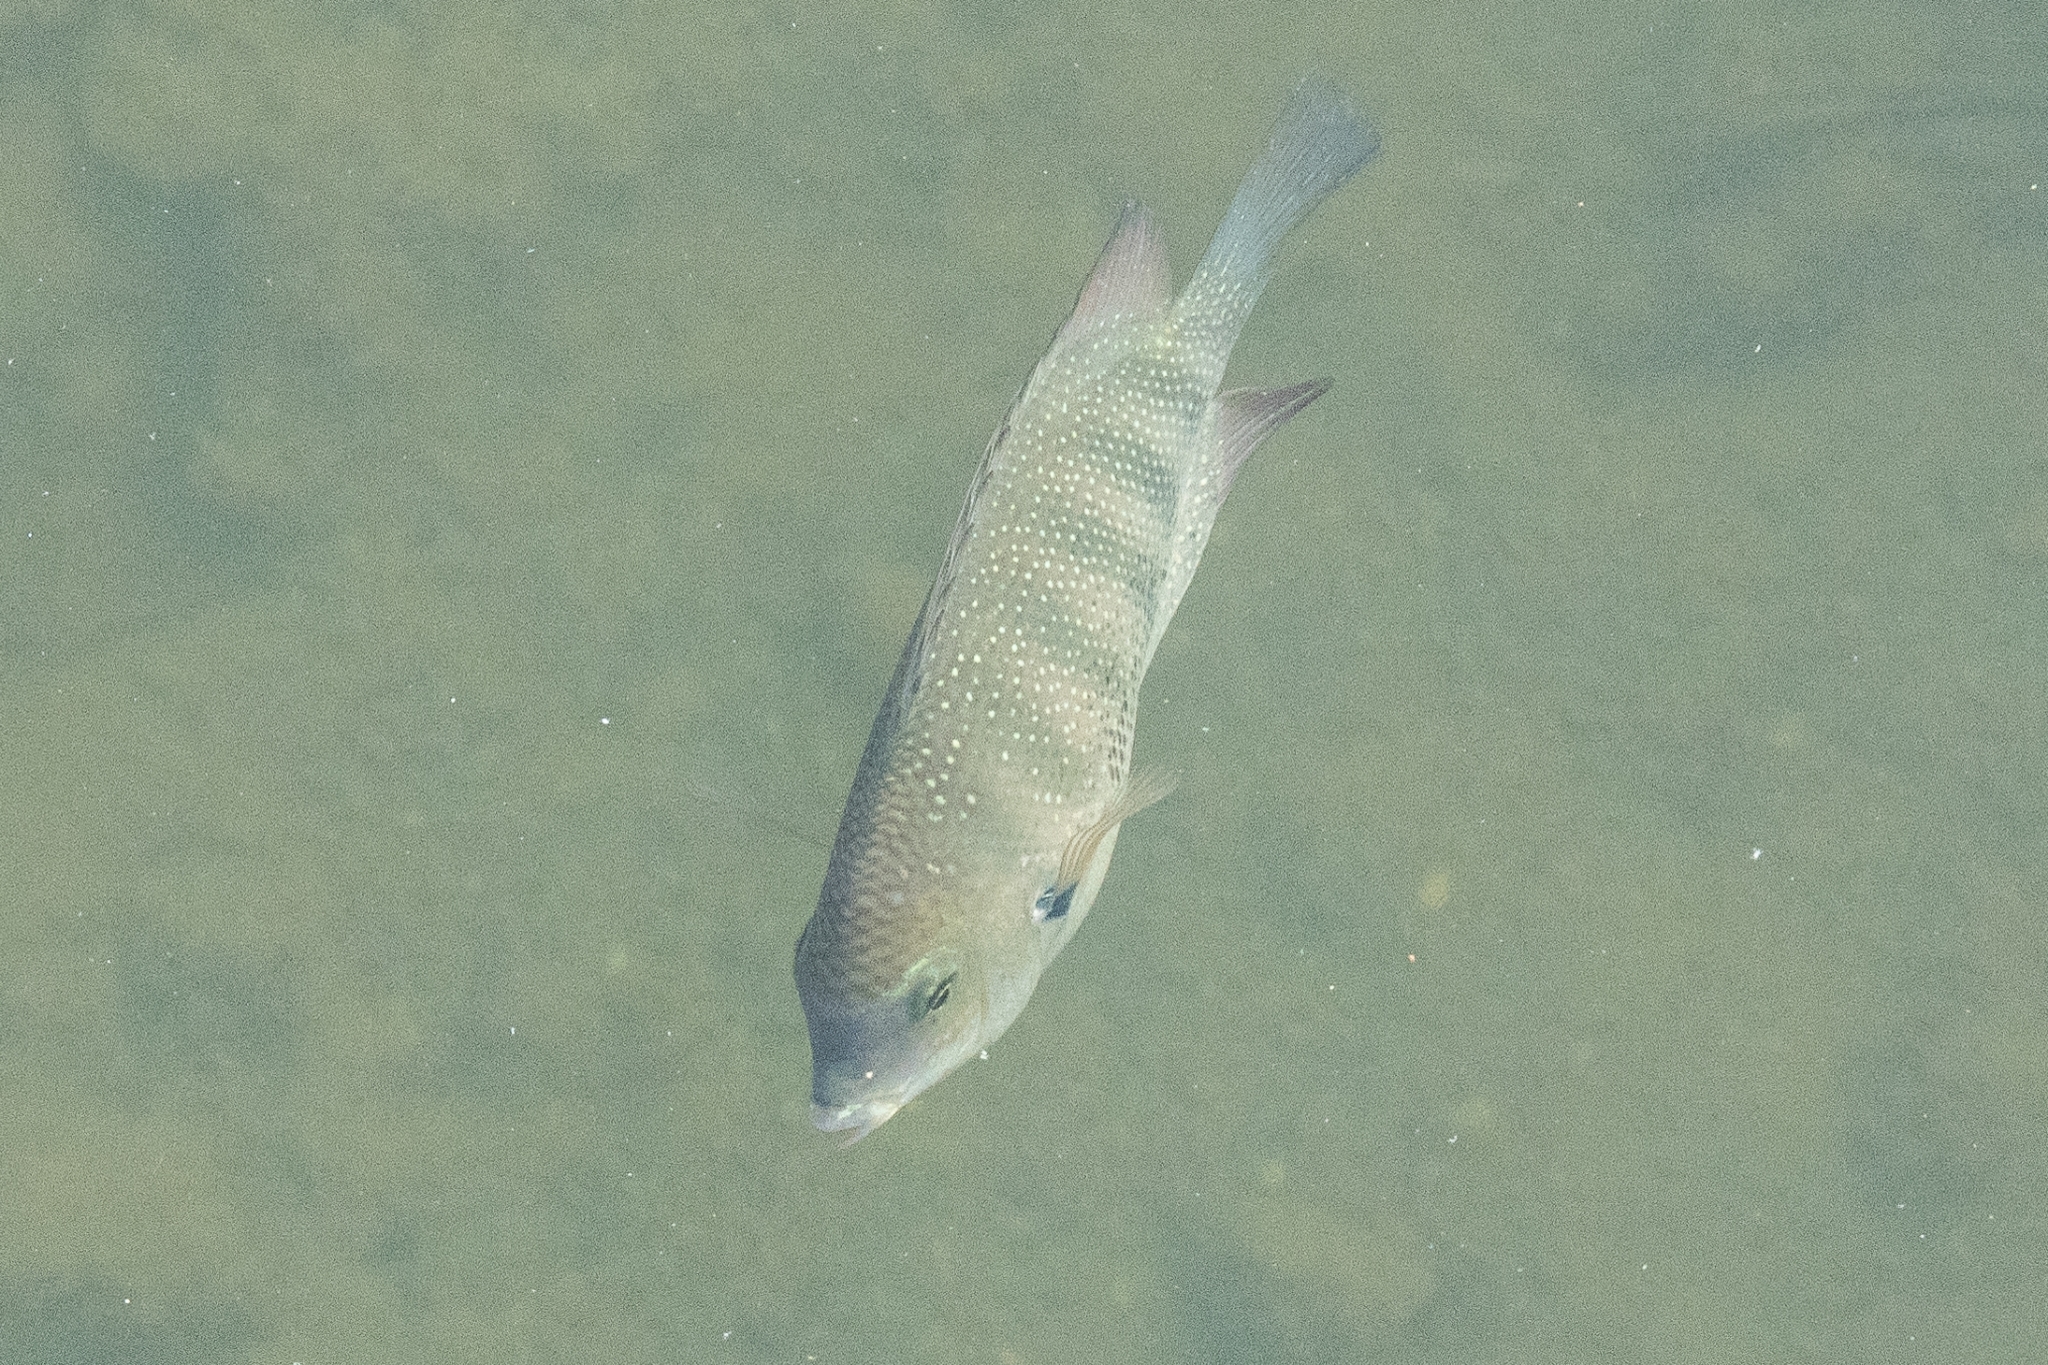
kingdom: Animalia
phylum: Chordata
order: Perciformes
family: Cichlidae
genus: Etroplus
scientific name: Etroplus suratensis
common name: Green chromide
